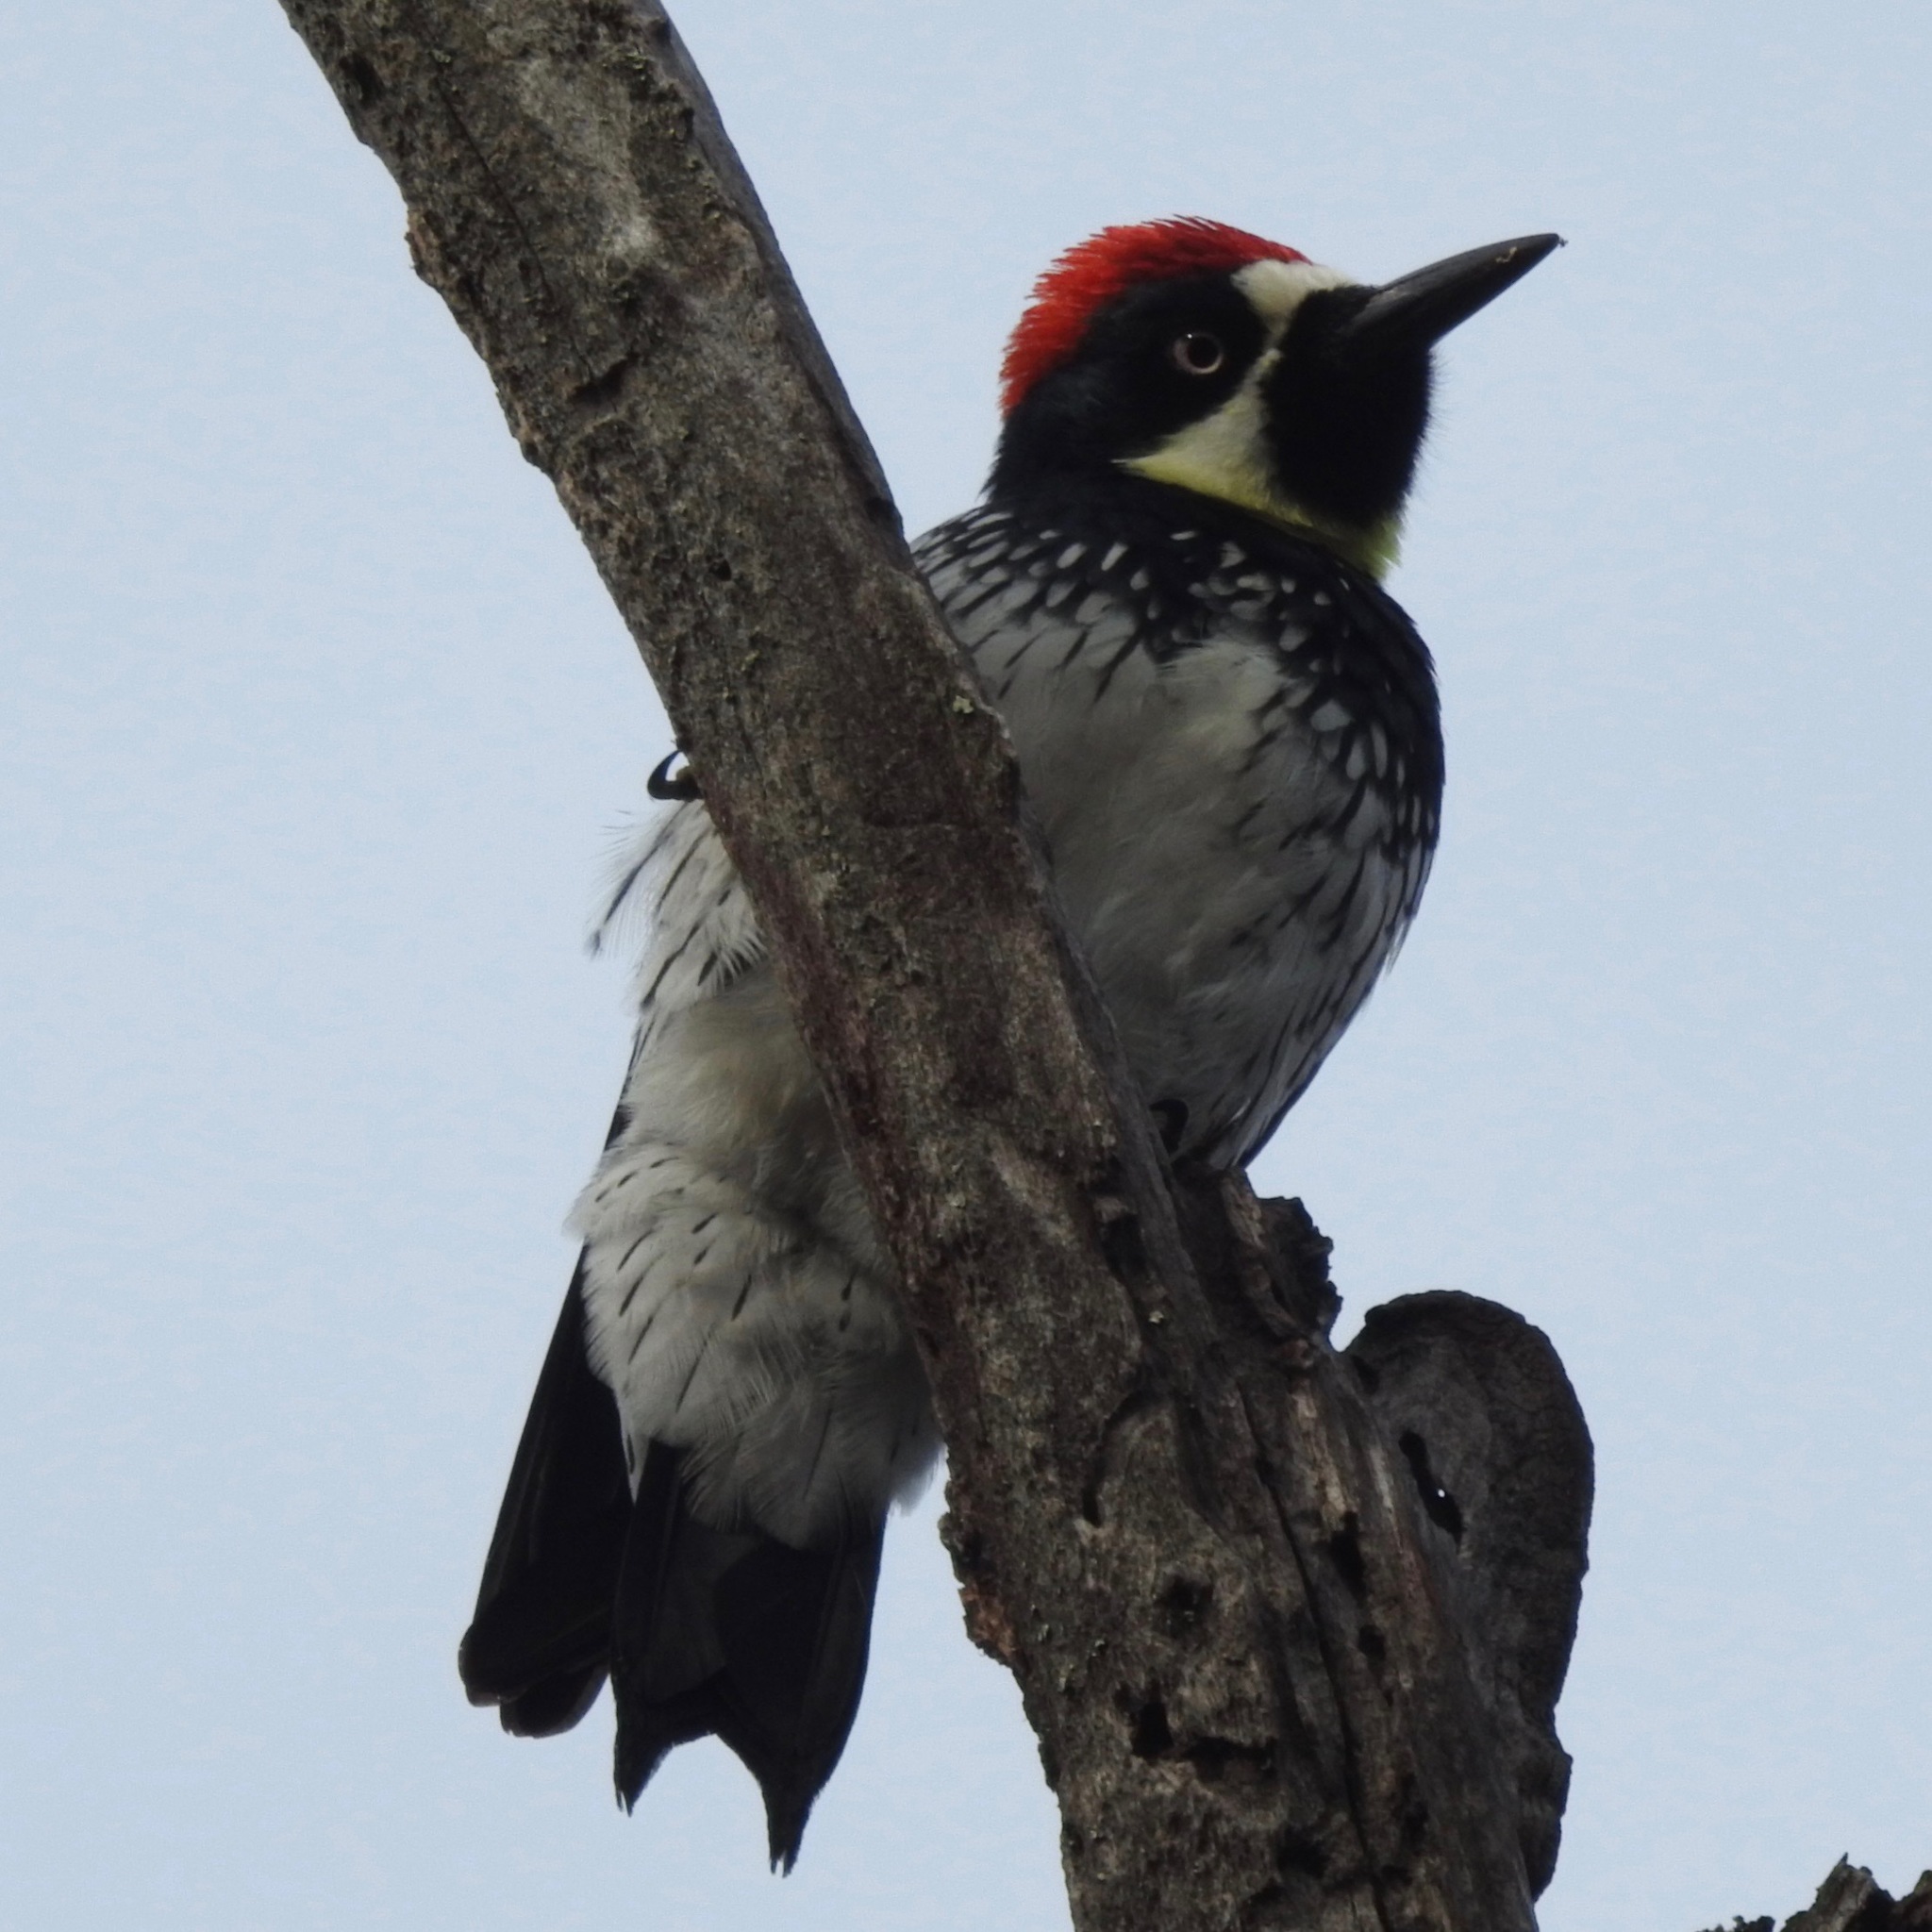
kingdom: Animalia
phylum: Chordata
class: Aves
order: Piciformes
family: Picidae
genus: Melanerpes
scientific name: Melanerpes formicivorus
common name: Acorn woodpecker
